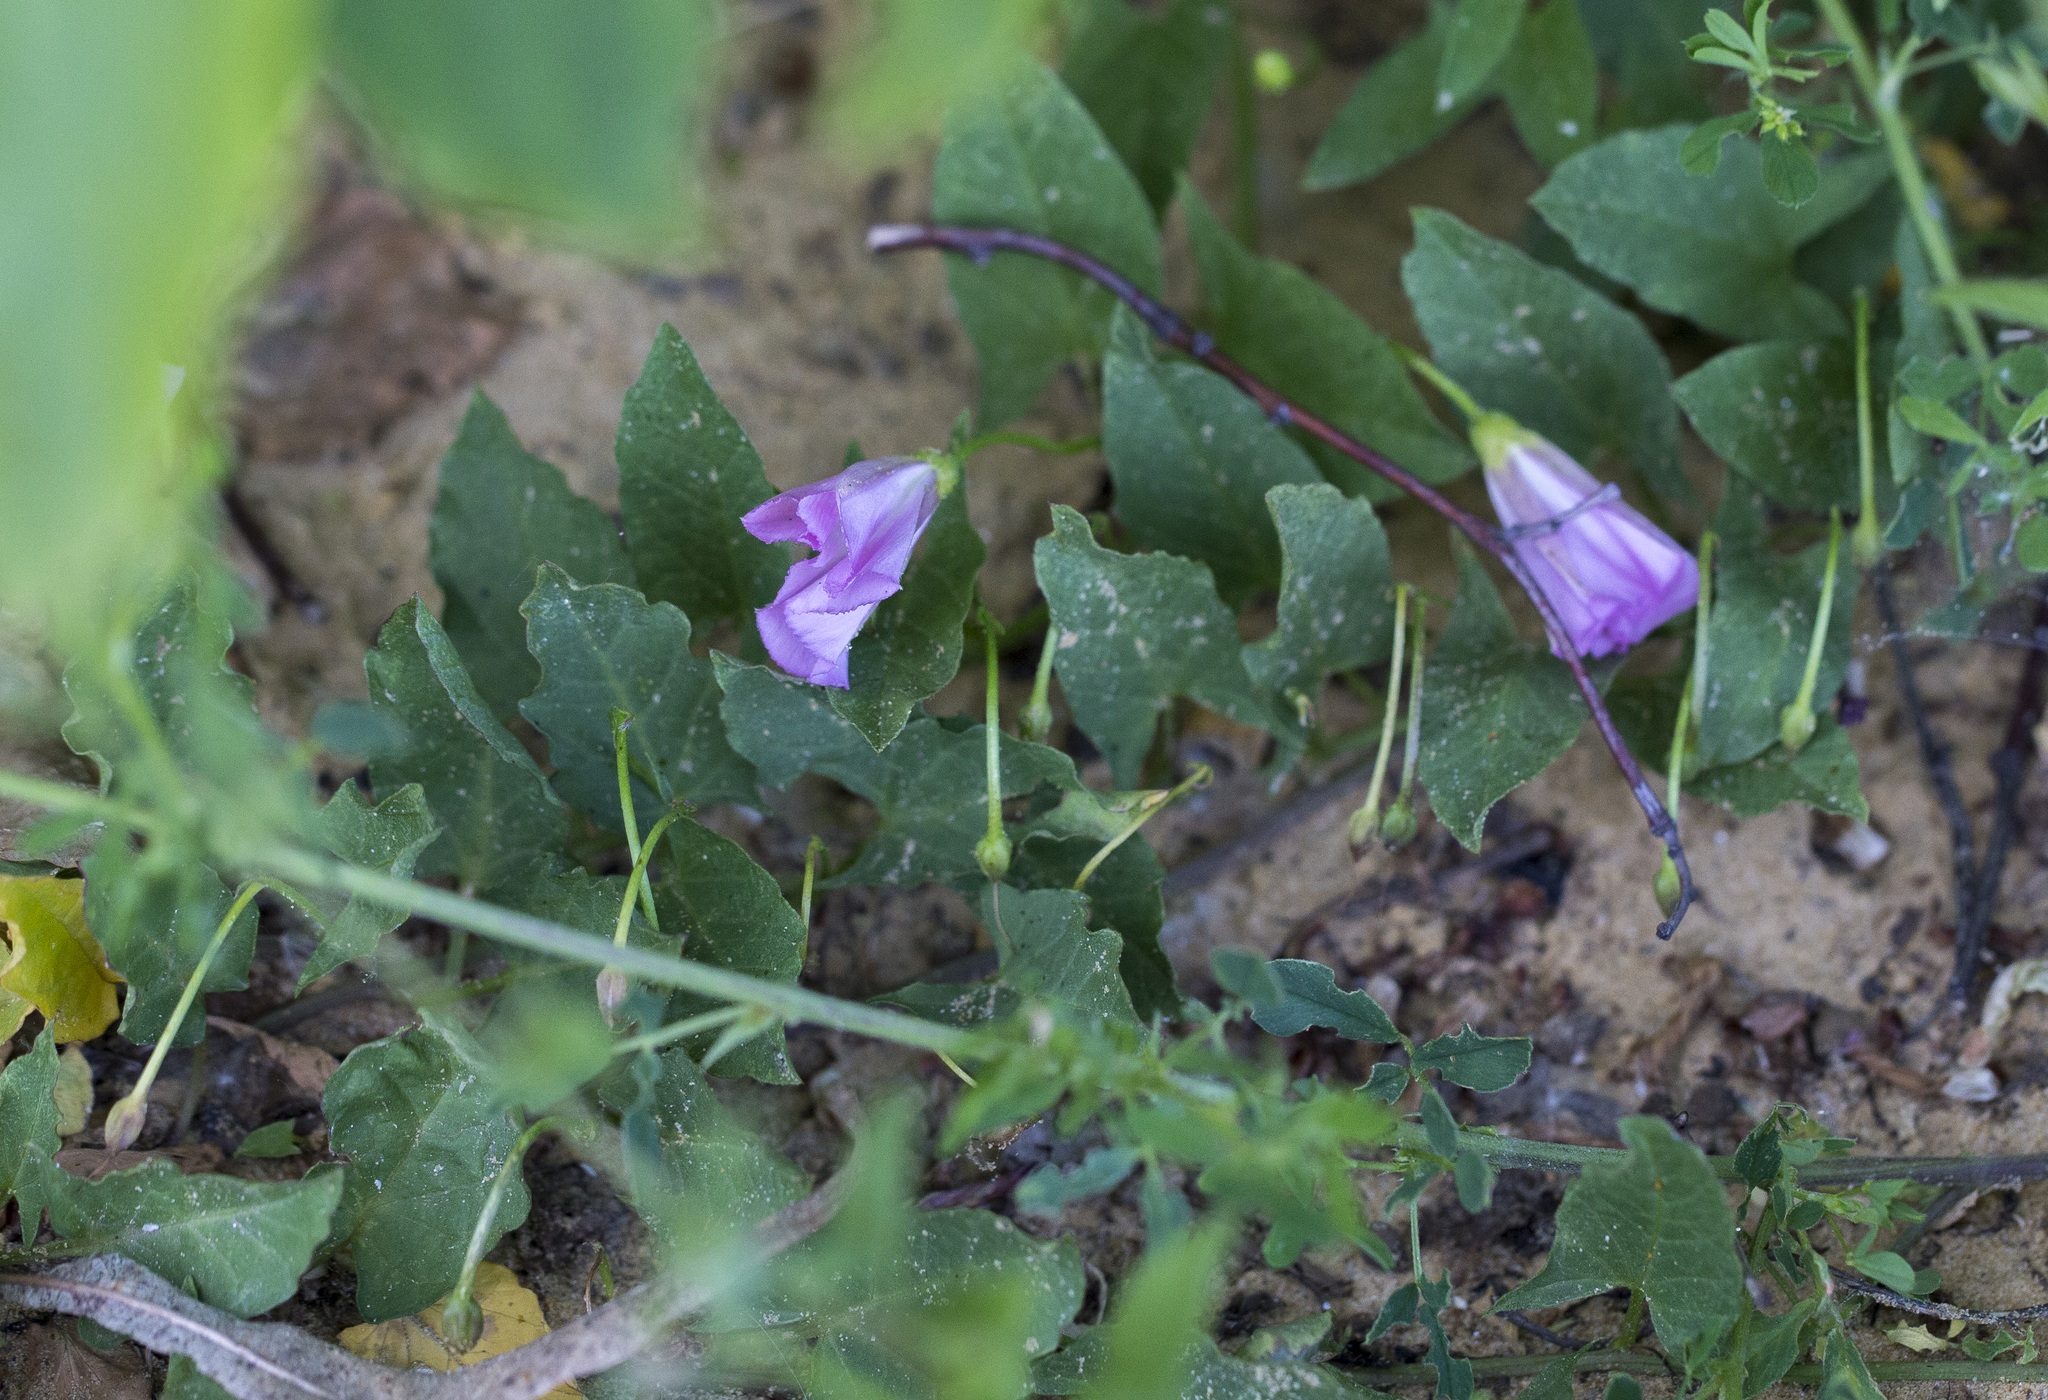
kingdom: Plantae
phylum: Tracheophyta
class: Magnoliopsida
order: Solanales
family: Convolvulaceae
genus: Convolvulus
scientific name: Convolvulus arvensis
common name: Field bindweed
